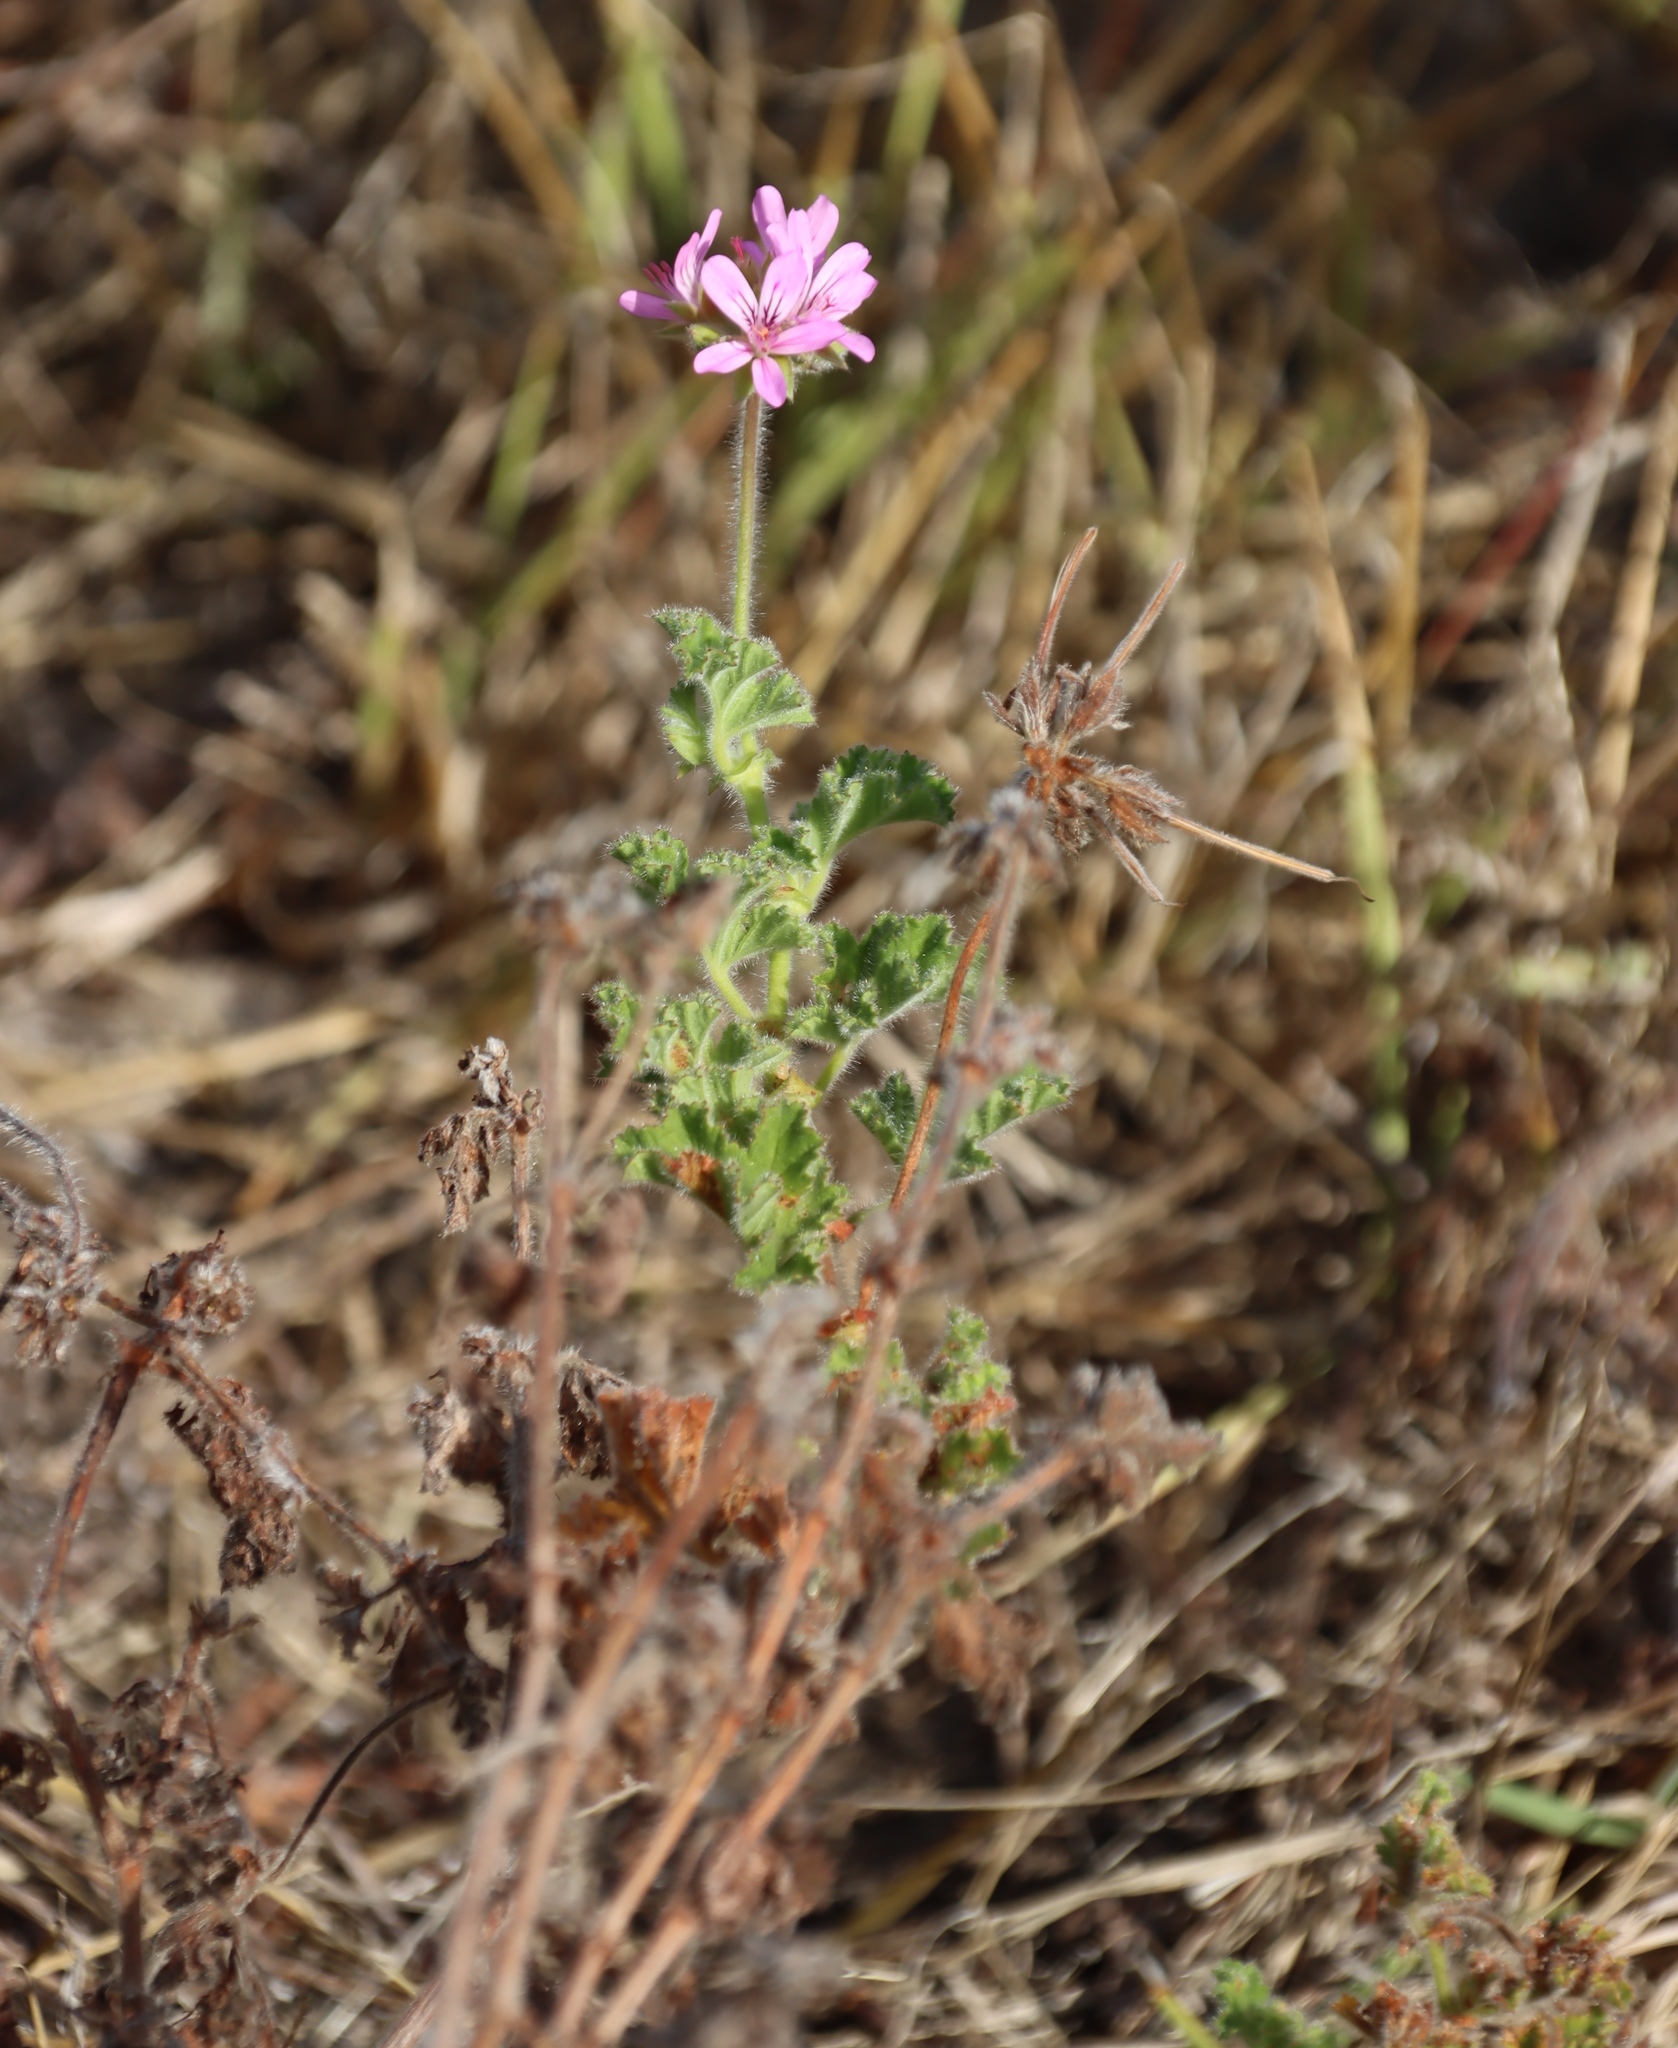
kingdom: Plantae
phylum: Tracheophyta
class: Magnoliopsida
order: Geraniales
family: Geraniaceae
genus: Pelargonium
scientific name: Pelargonium capitatum
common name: Rose scented geranium
